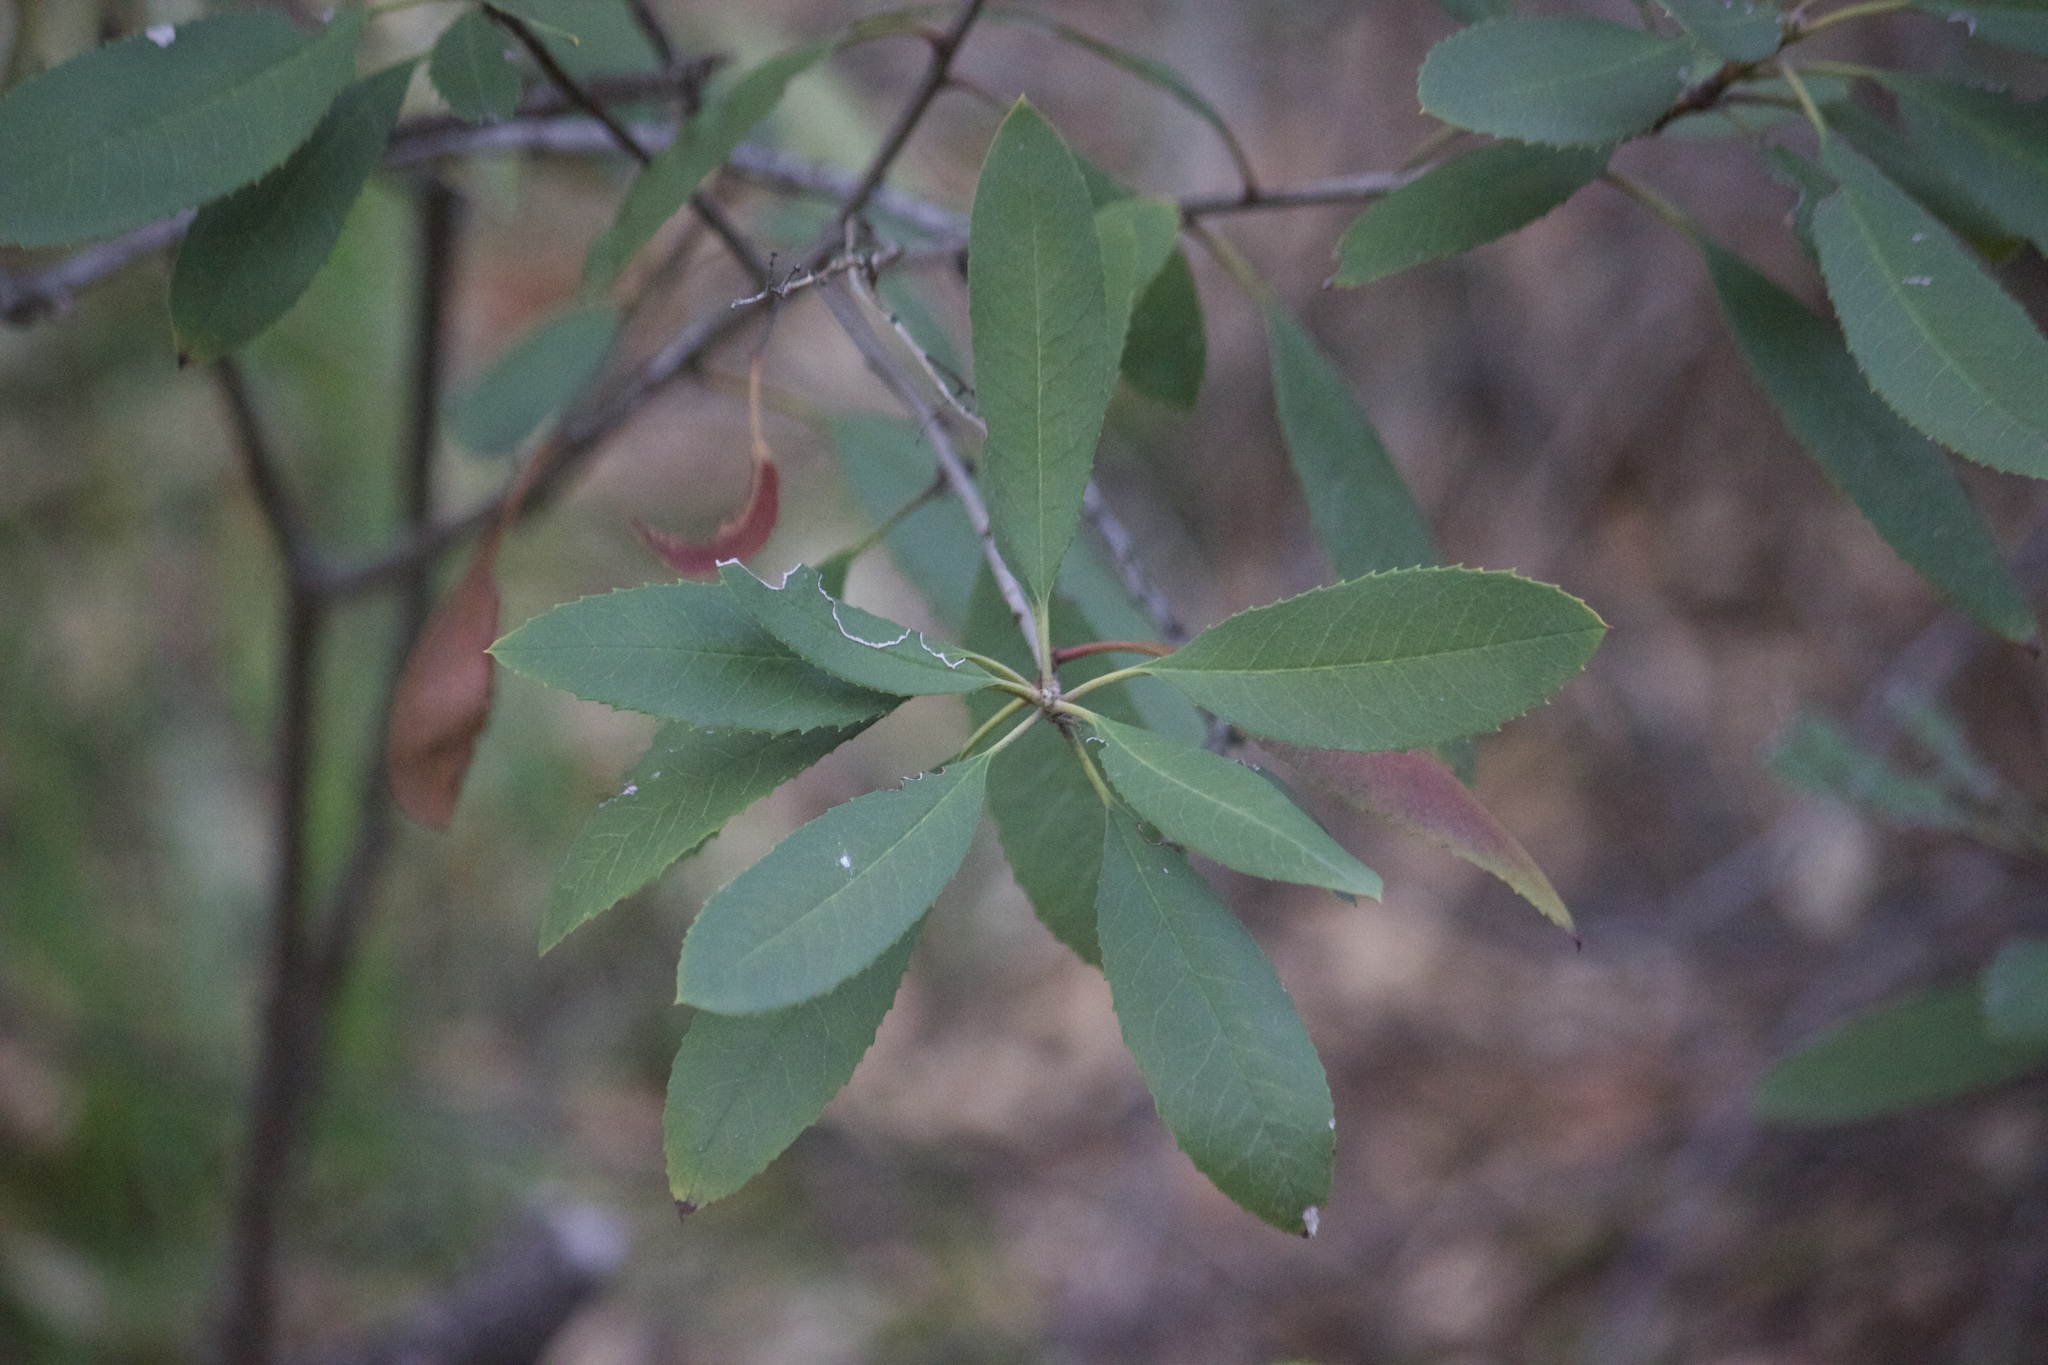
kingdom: Plantae
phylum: Tracheophyta
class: Magnoliopsida
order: Rosales
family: Rosaceae
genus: Heteromeles
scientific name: Heteromeles arbutifolia
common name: California-holly
